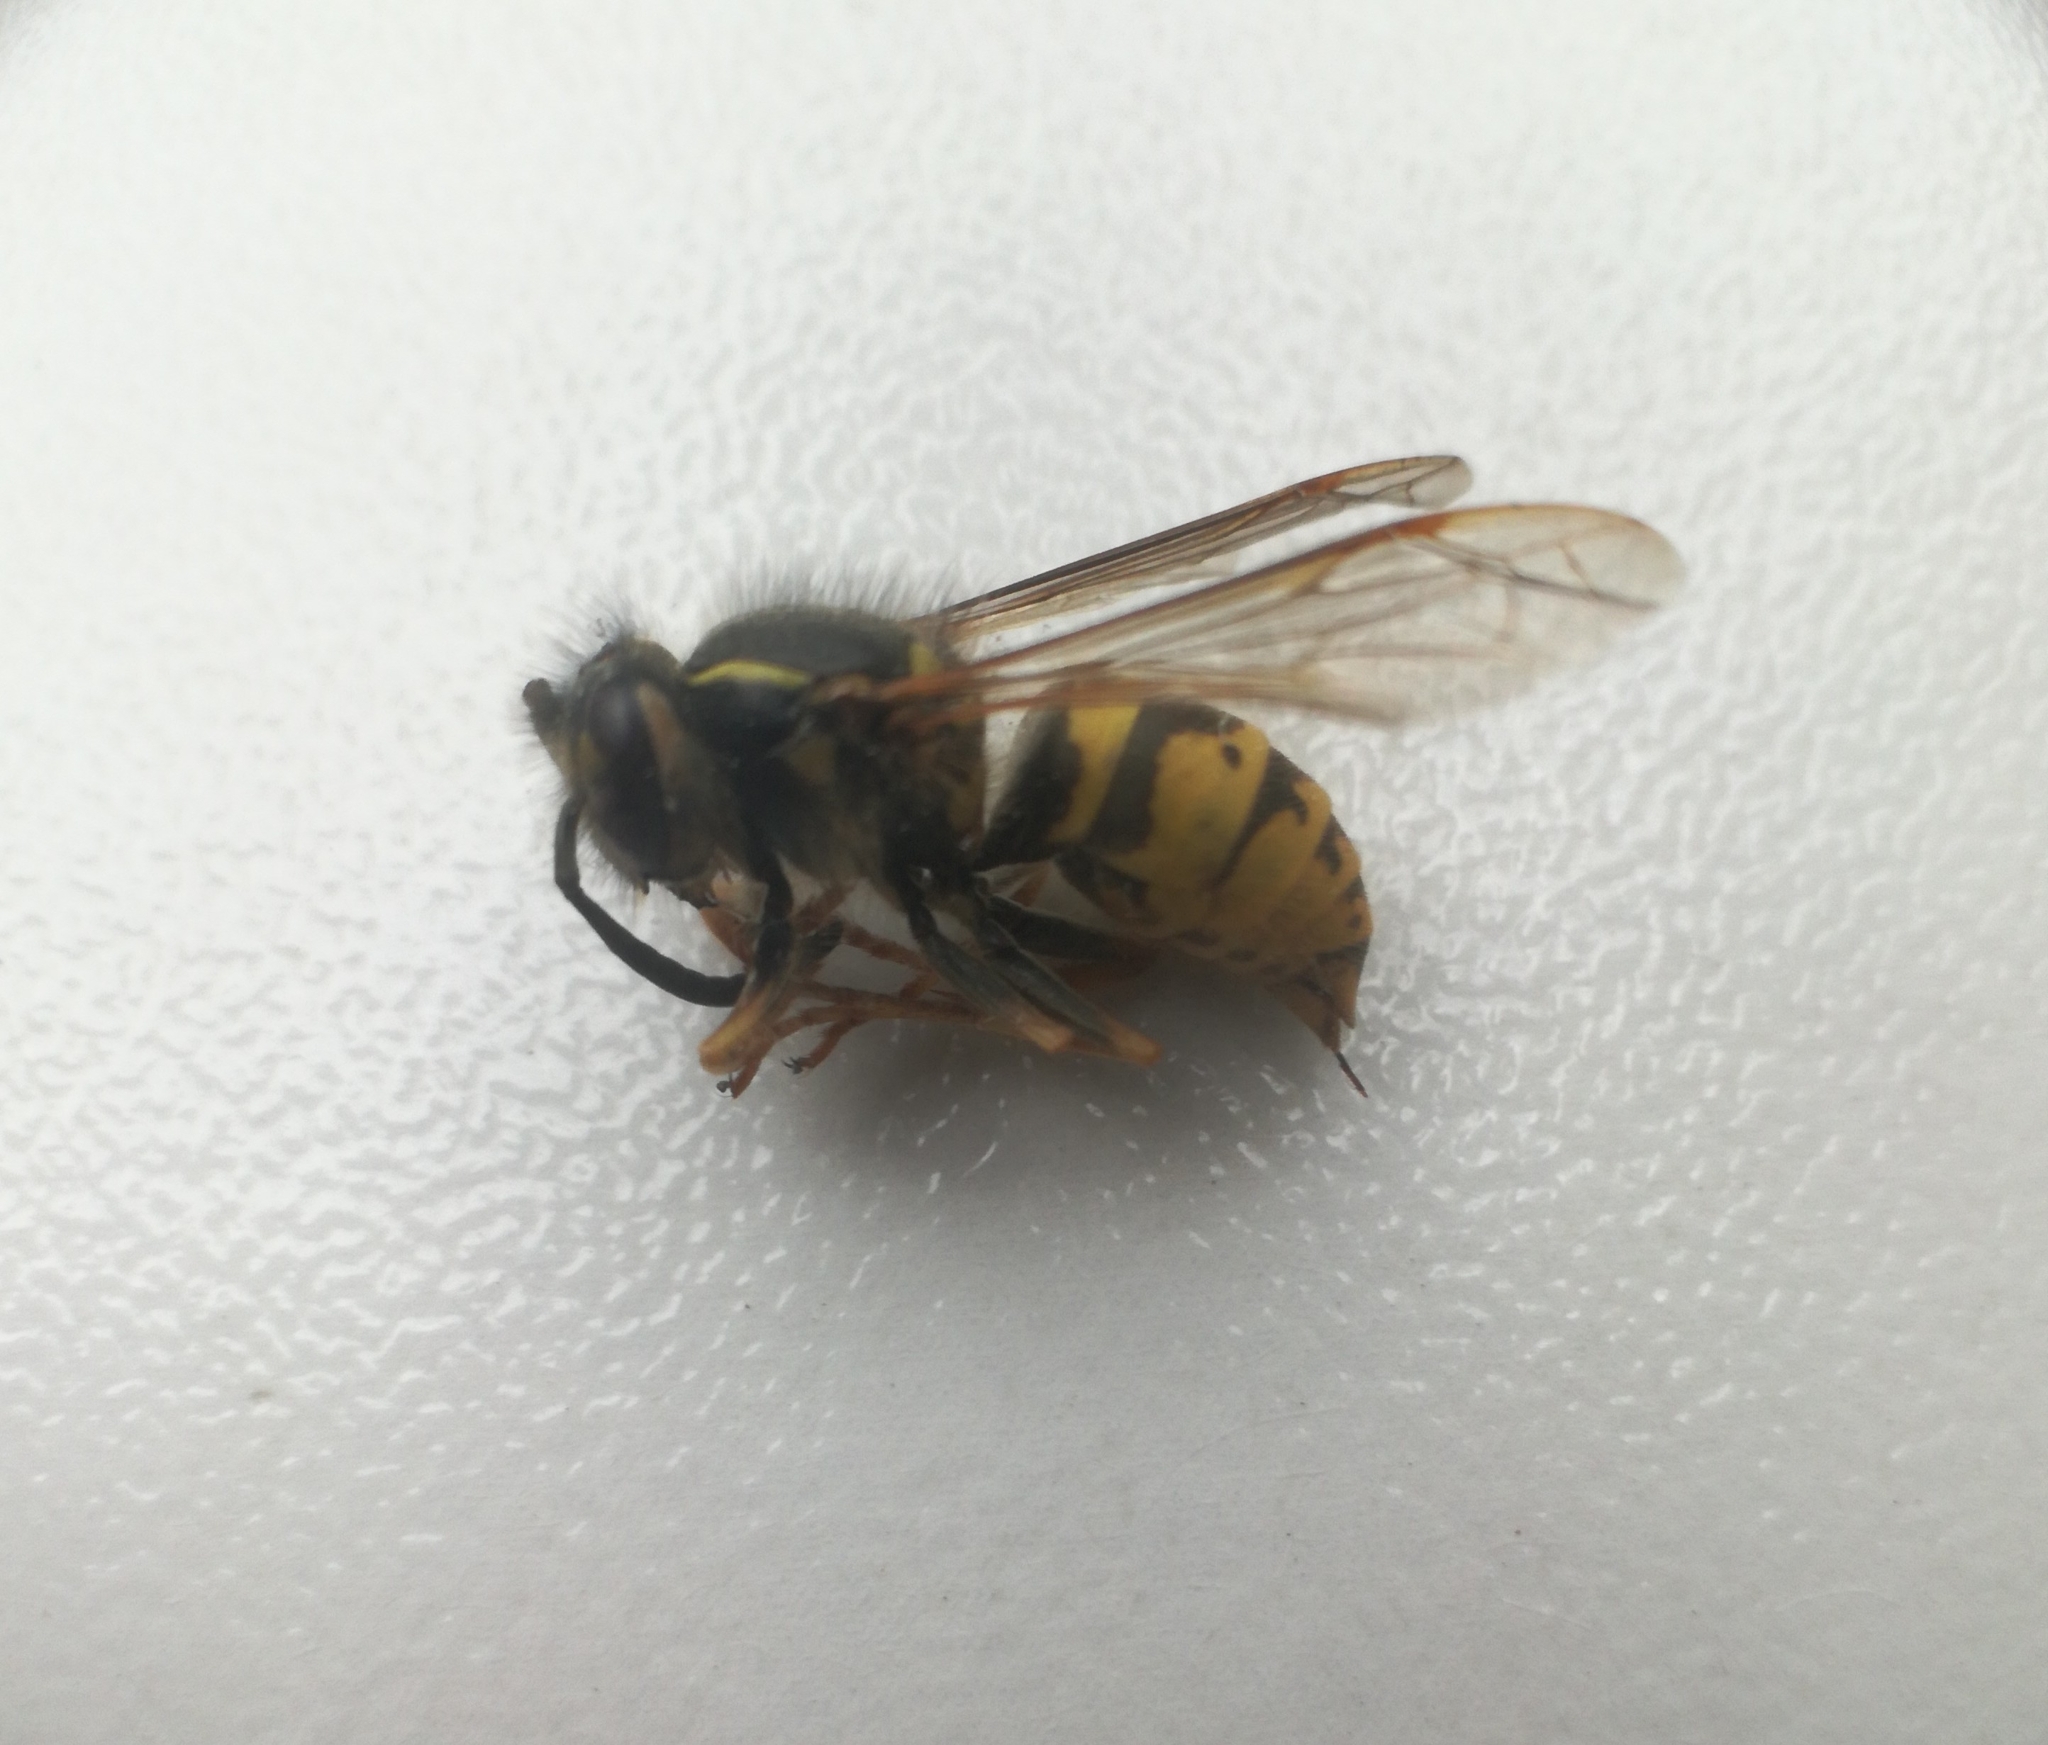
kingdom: Animalia
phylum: Arthropoda
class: Insecta
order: Hymenoptera
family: Vespidae
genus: Vespula
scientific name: Vespula vulgaris
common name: Common wasp
